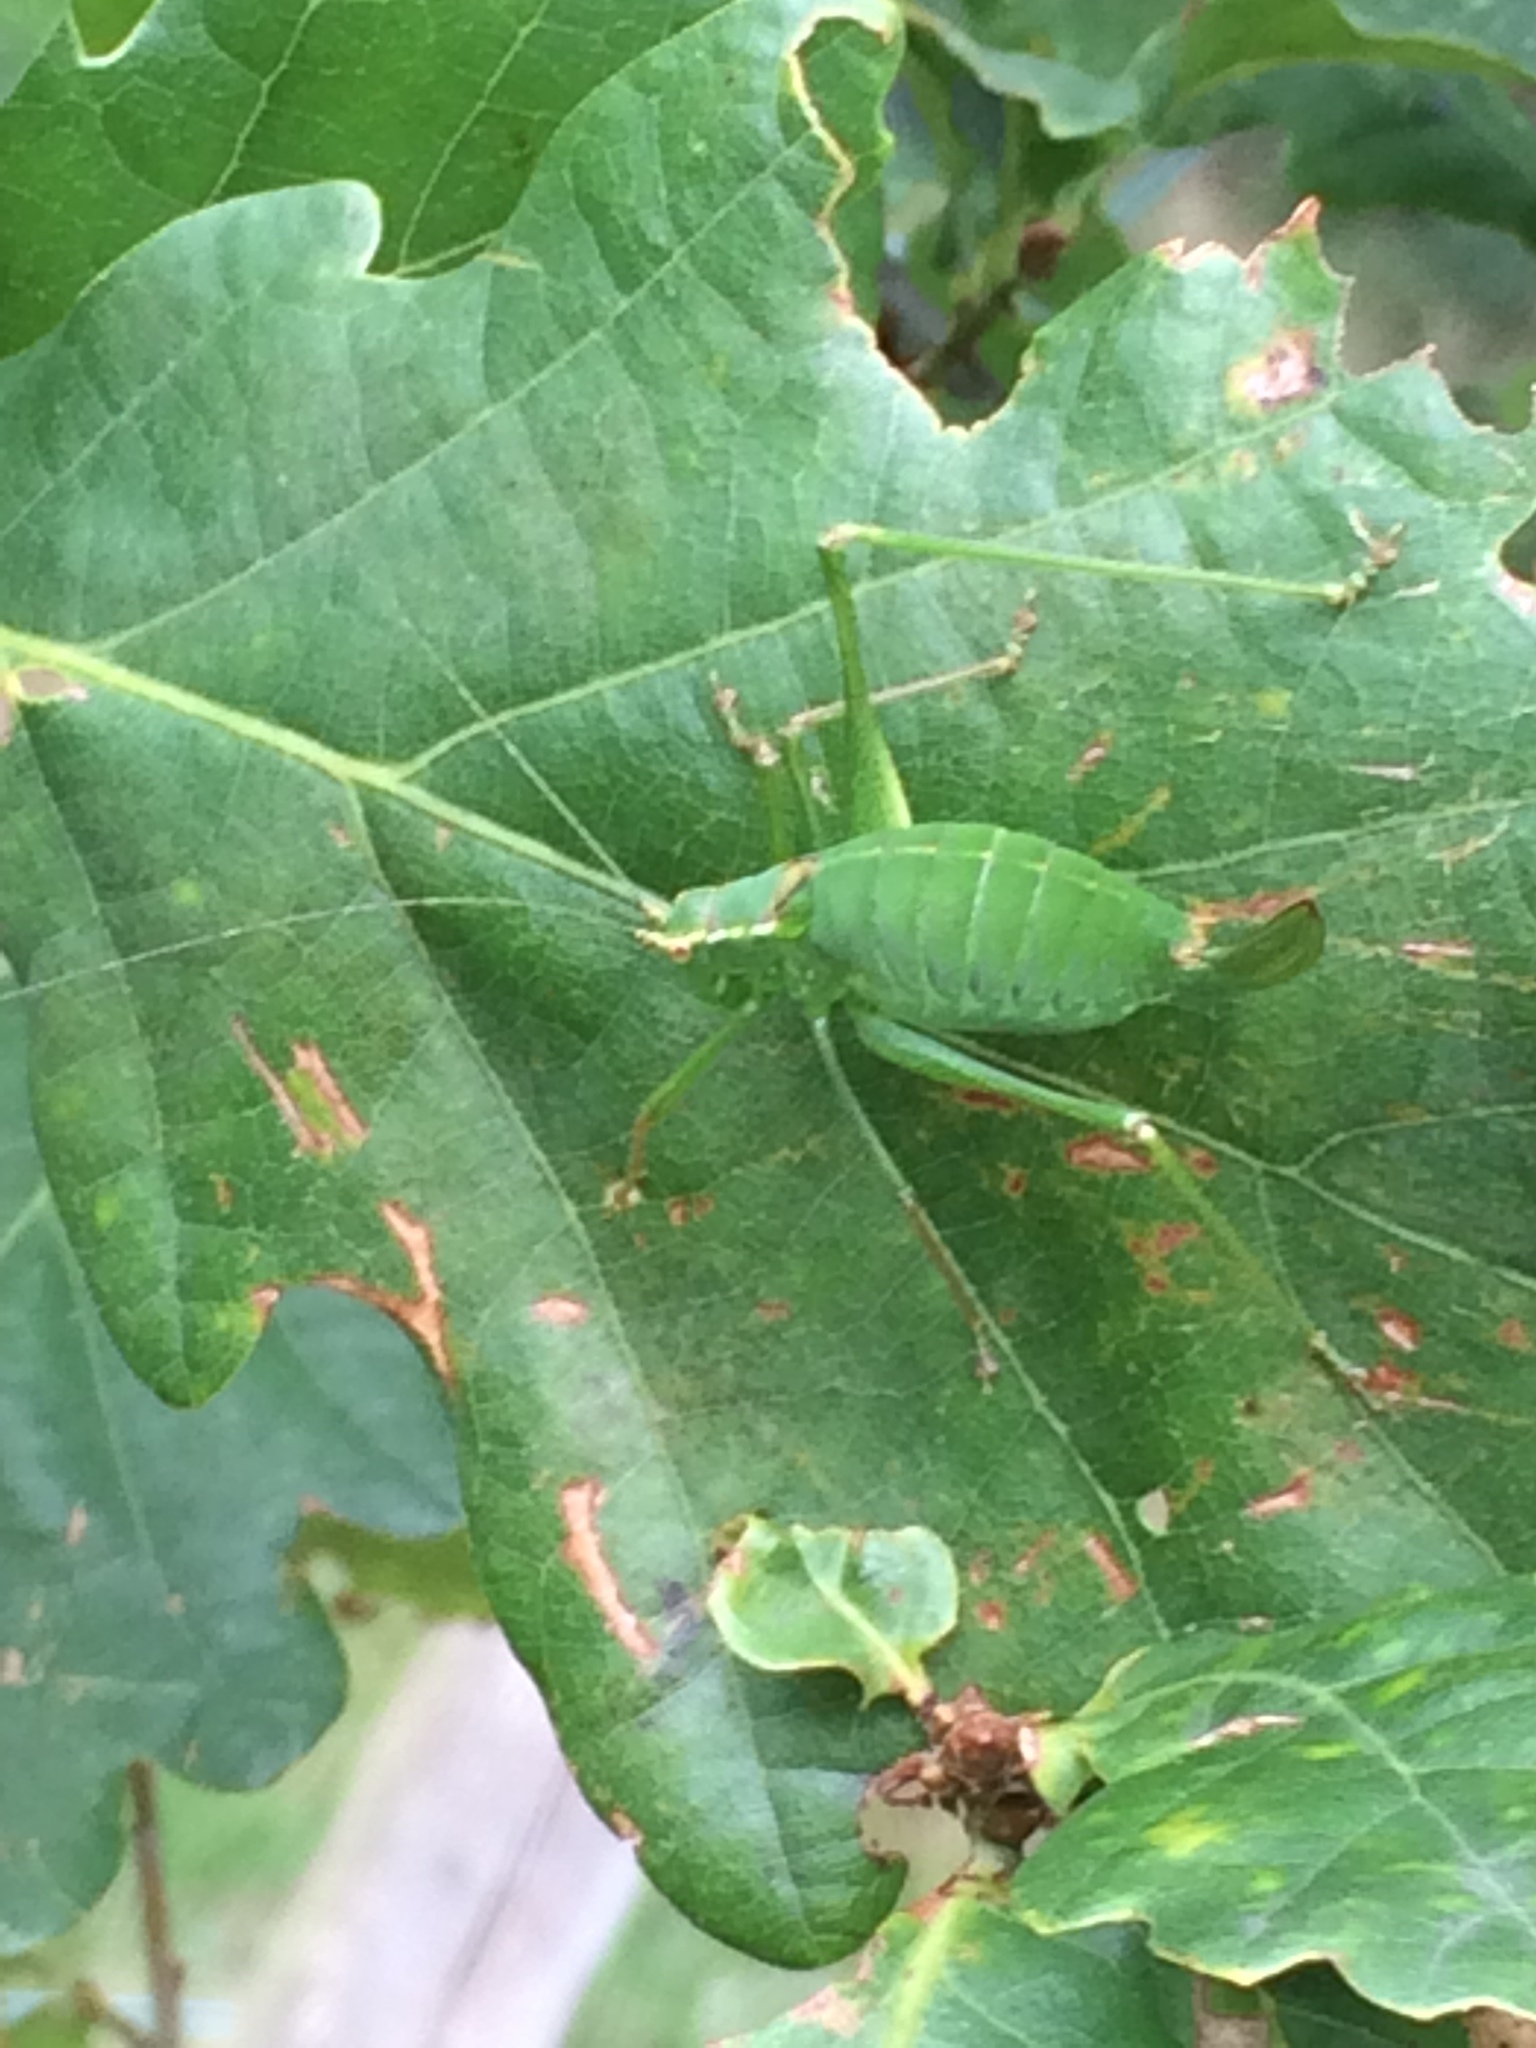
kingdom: Animalia
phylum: Arthropoda
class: Insecta
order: Orthoptera
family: Tettigoniidae
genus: Leptophyes
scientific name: Leptophyes punctatissima
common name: Speckled bush-cricket
